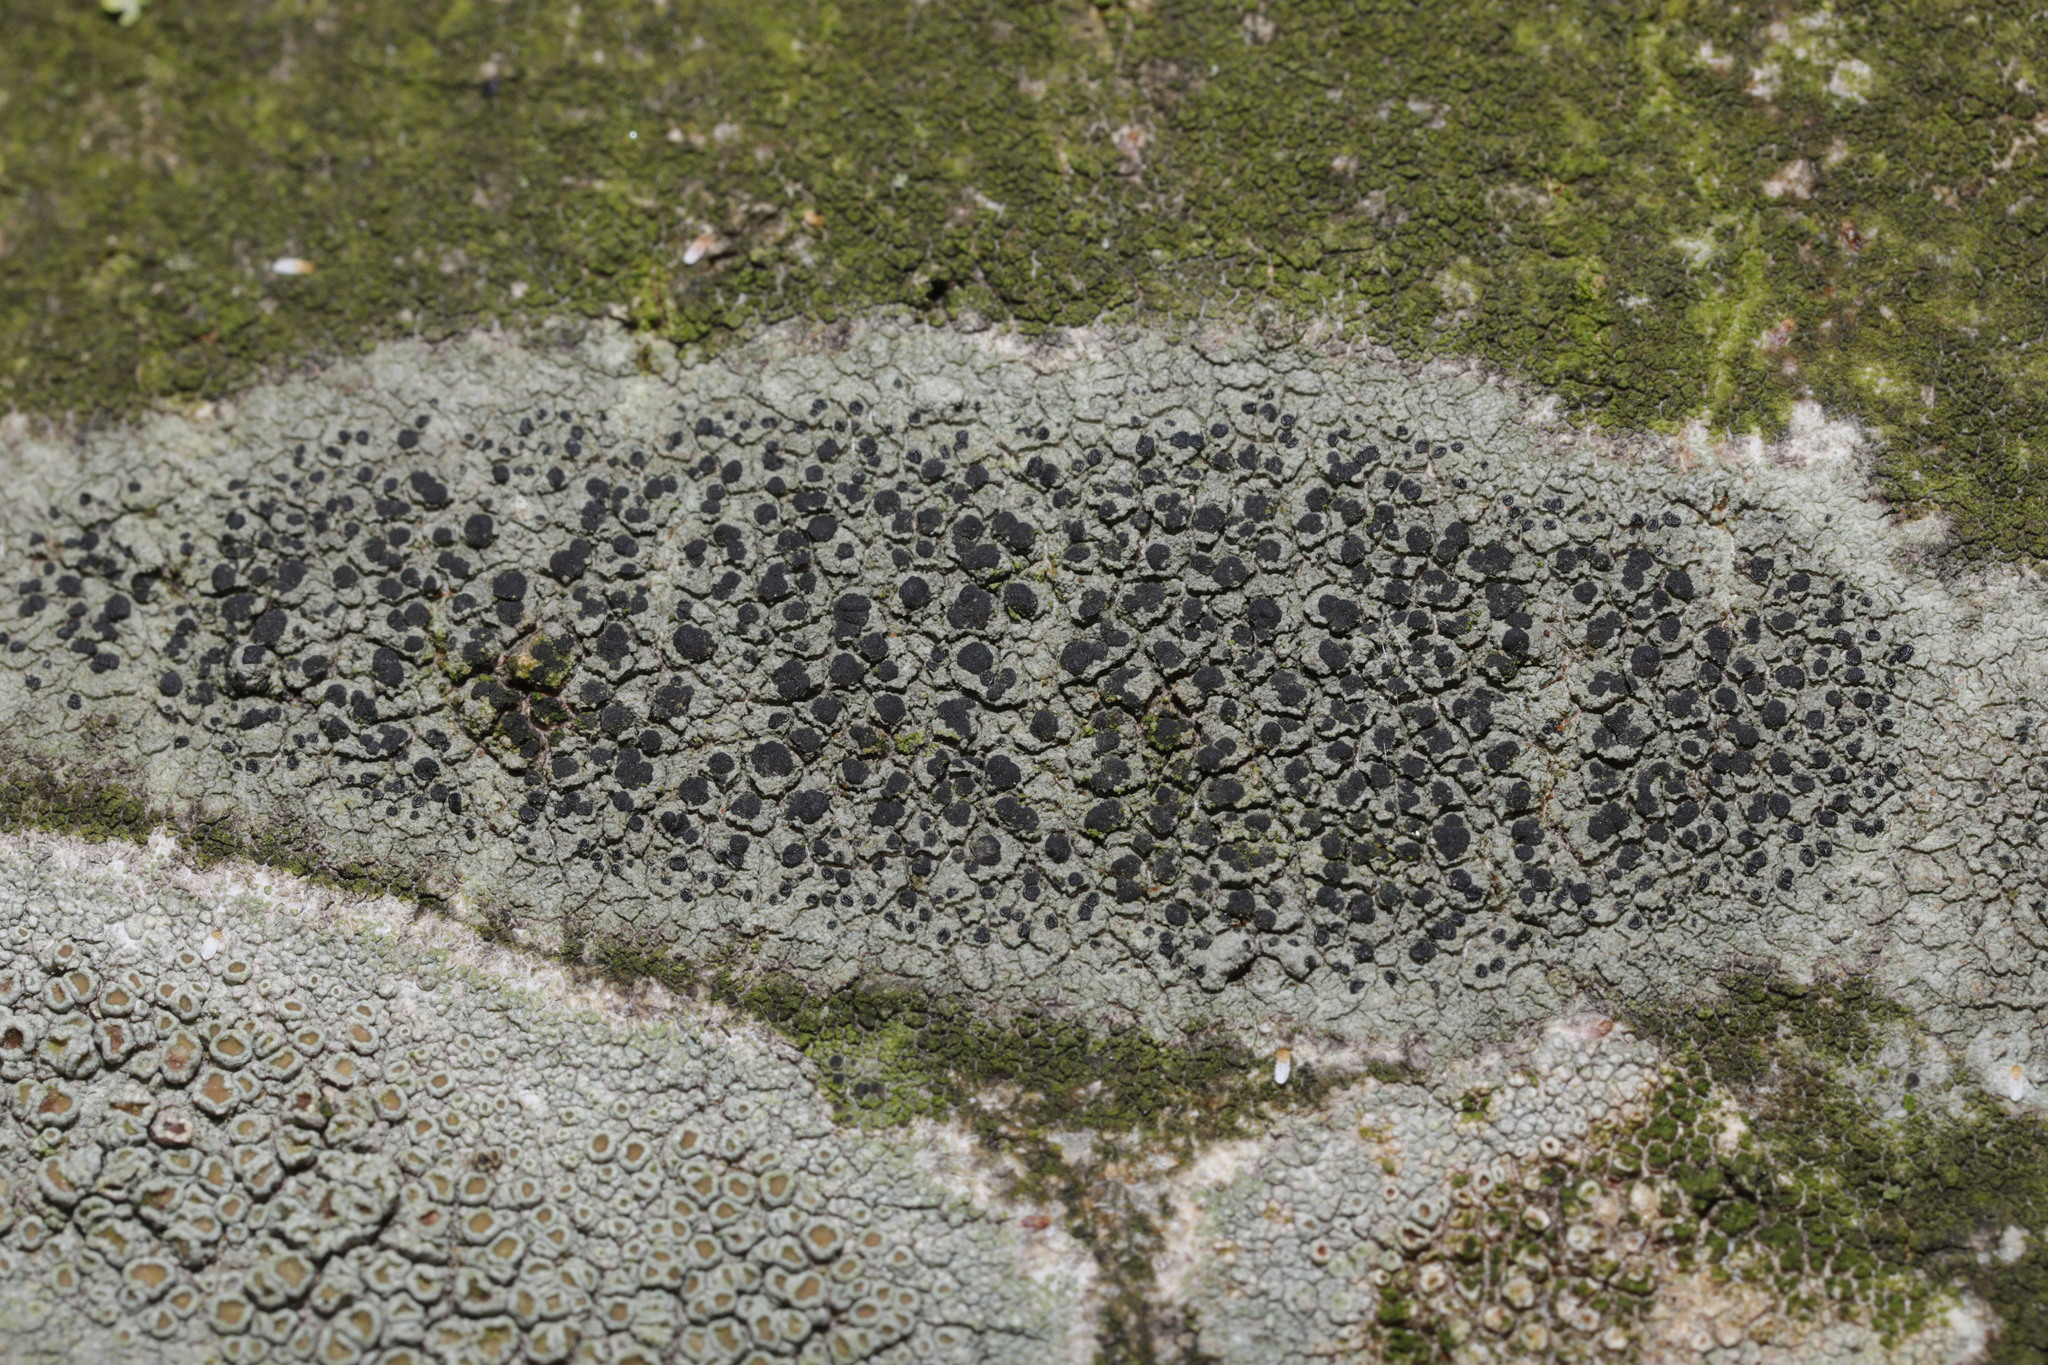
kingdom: Fungi
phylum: Ascomycota
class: Lecanoromycetes
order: Lecanorales
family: Lecanoraceae
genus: Lecidella
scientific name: Lecidella elaeochroma
